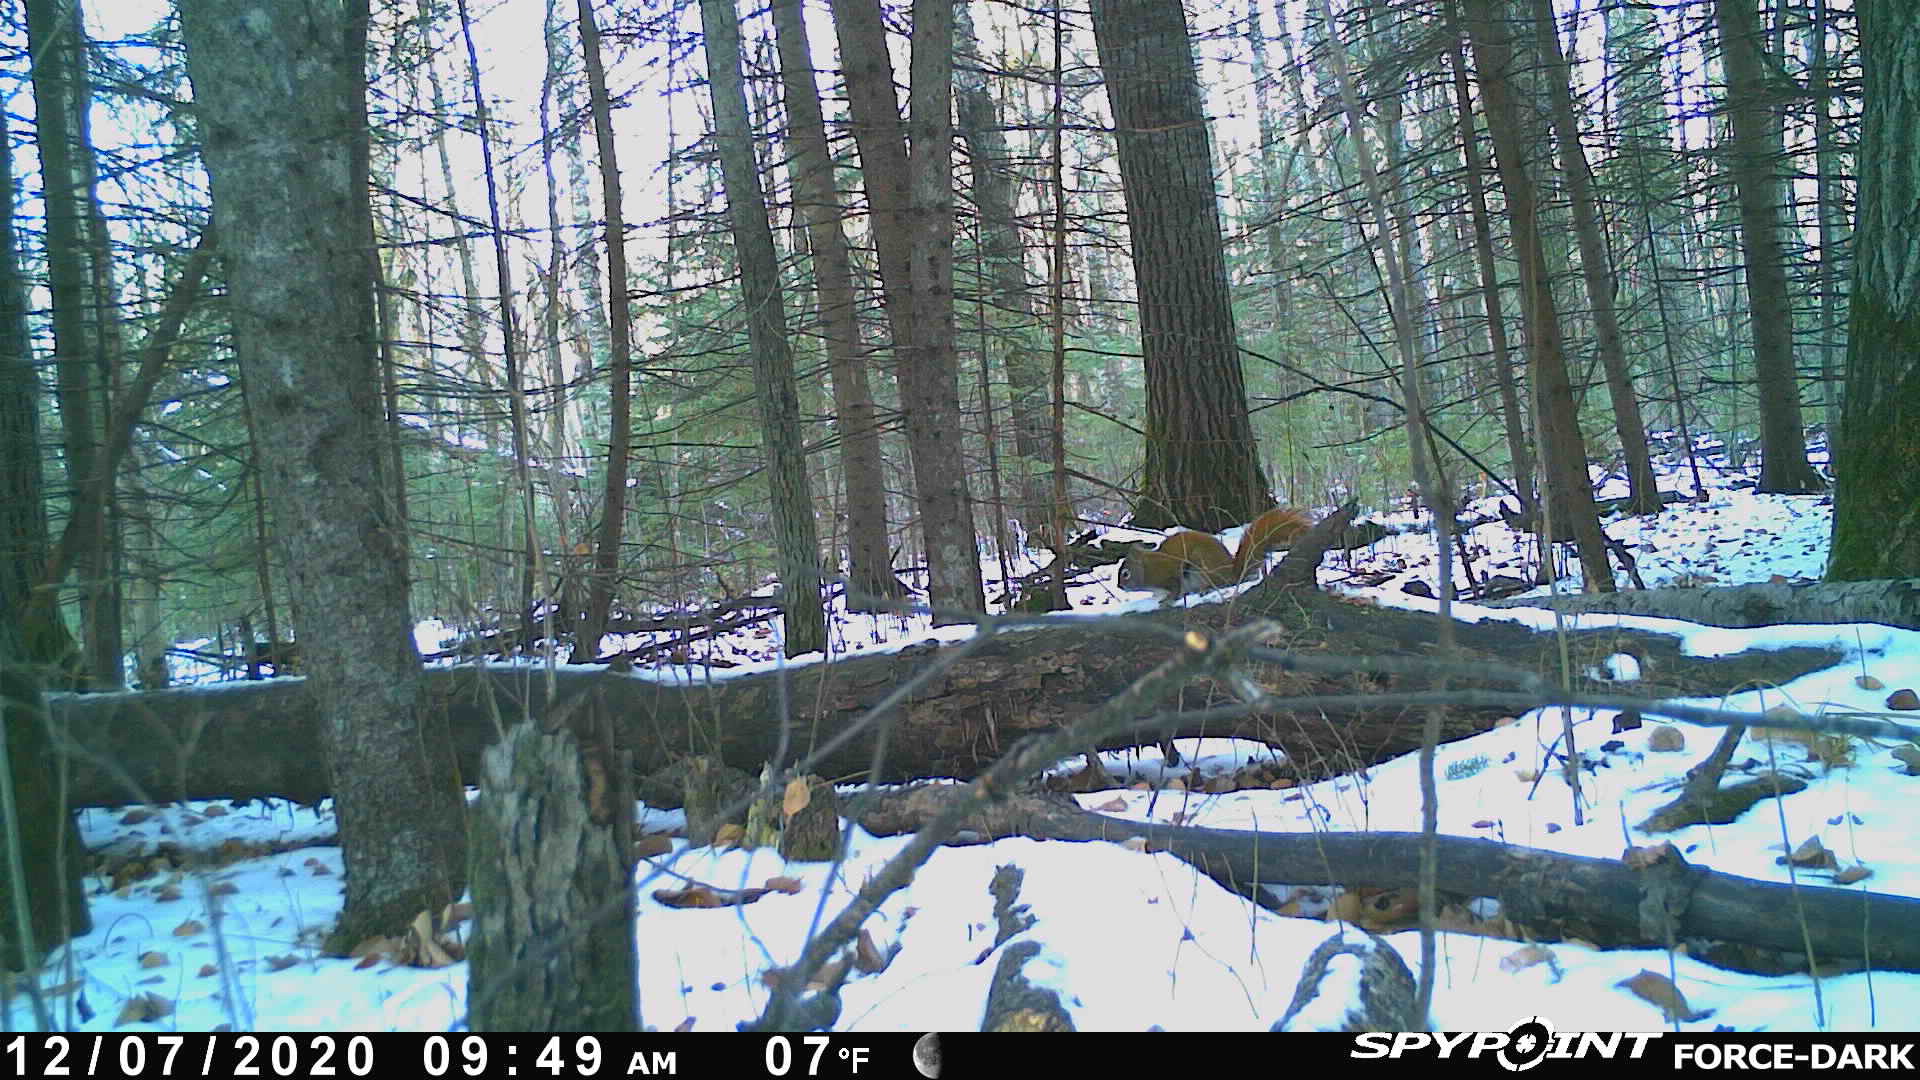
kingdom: Animalia
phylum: Chordata
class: Mammalia
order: Rodentia
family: Sciuridae
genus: Tamiasciurus
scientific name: Tamiasciurus hudsonicus
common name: Red squirrel
